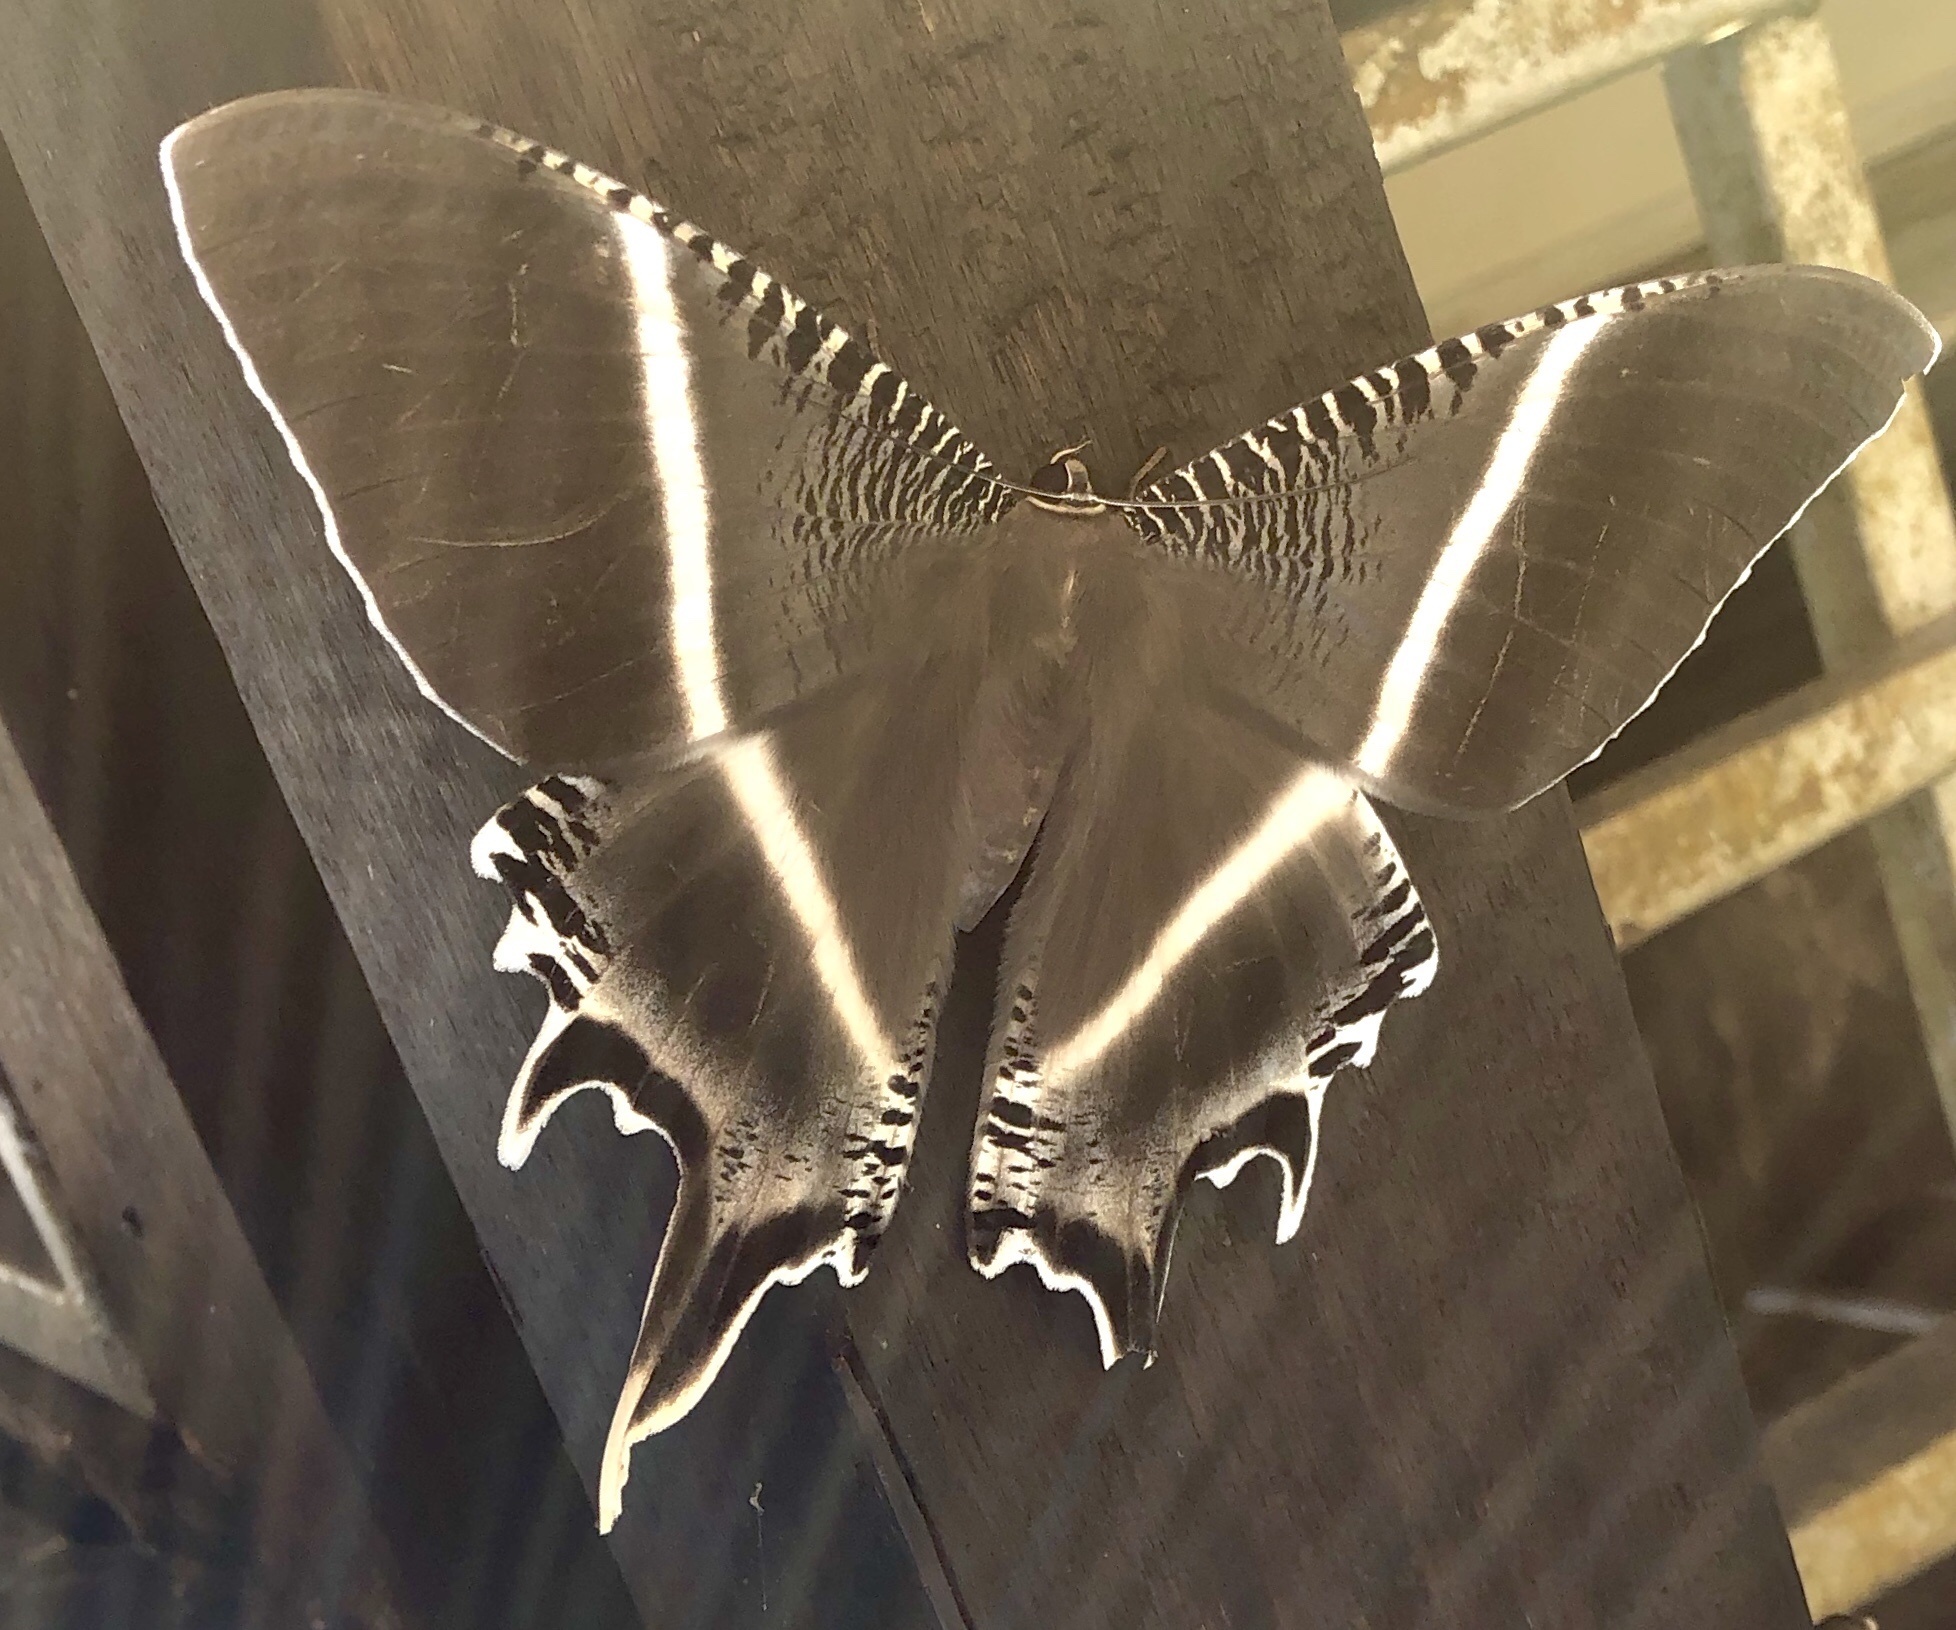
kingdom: Animalia
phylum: Arthropoda
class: Insecta
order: Lepidoptera
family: Uraniidae
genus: Lyssa
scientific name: Lyssa menoetius
